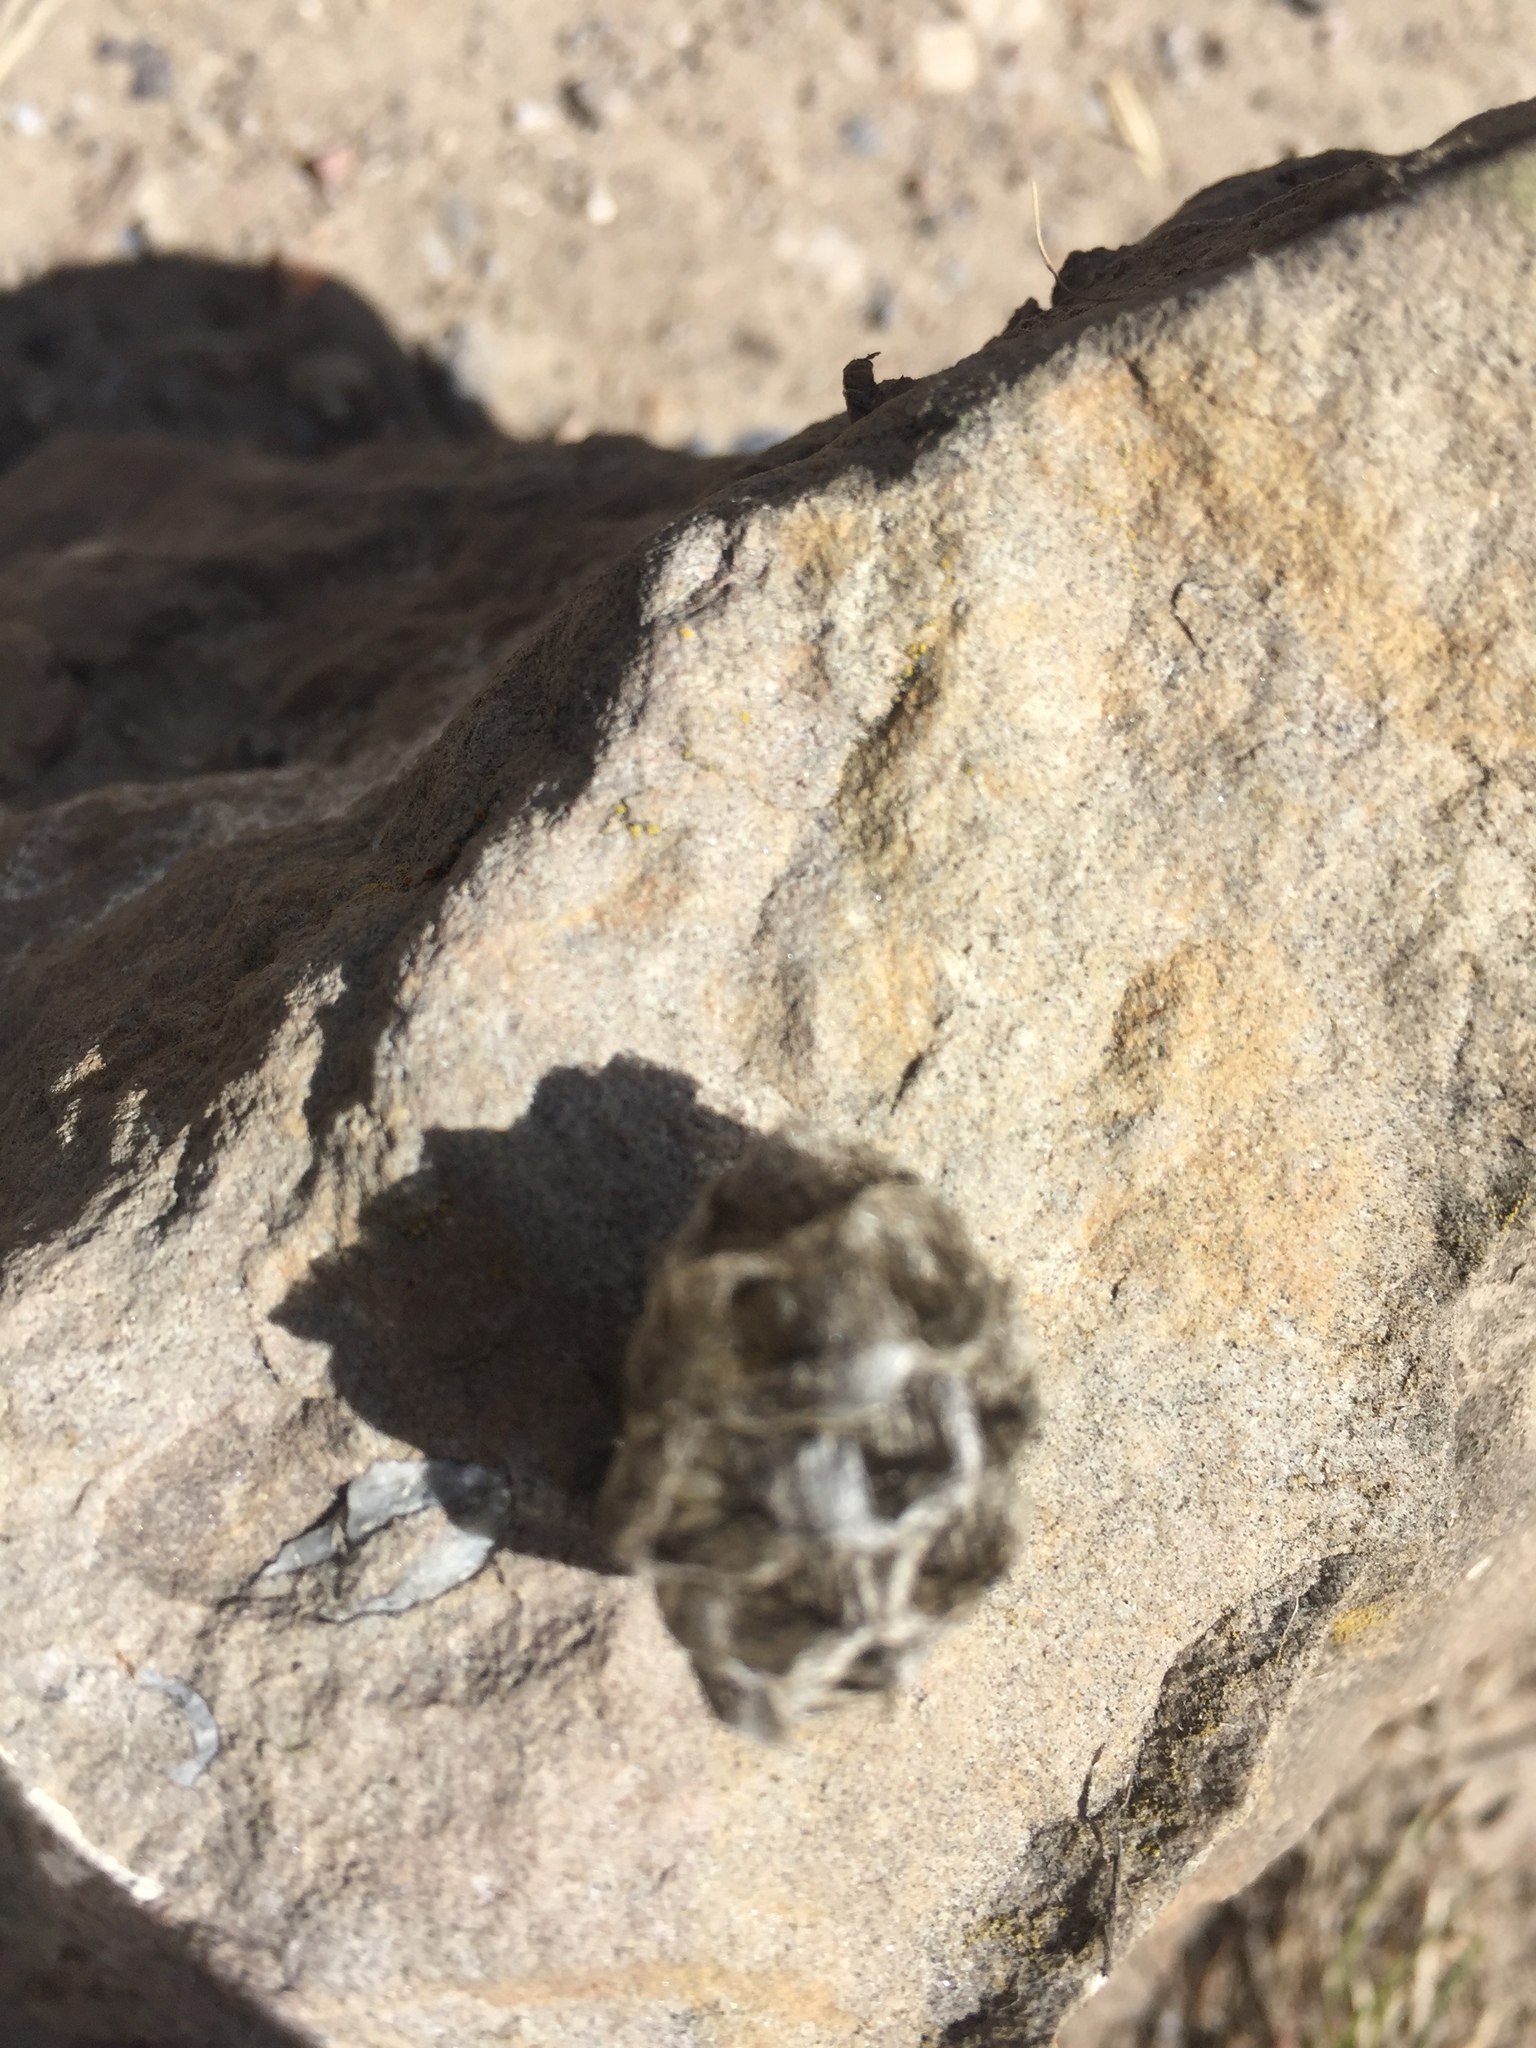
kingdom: Animalia
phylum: Arthropoda
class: Insecta
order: Hymenoptera
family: Vespidae
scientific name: Vespidae
